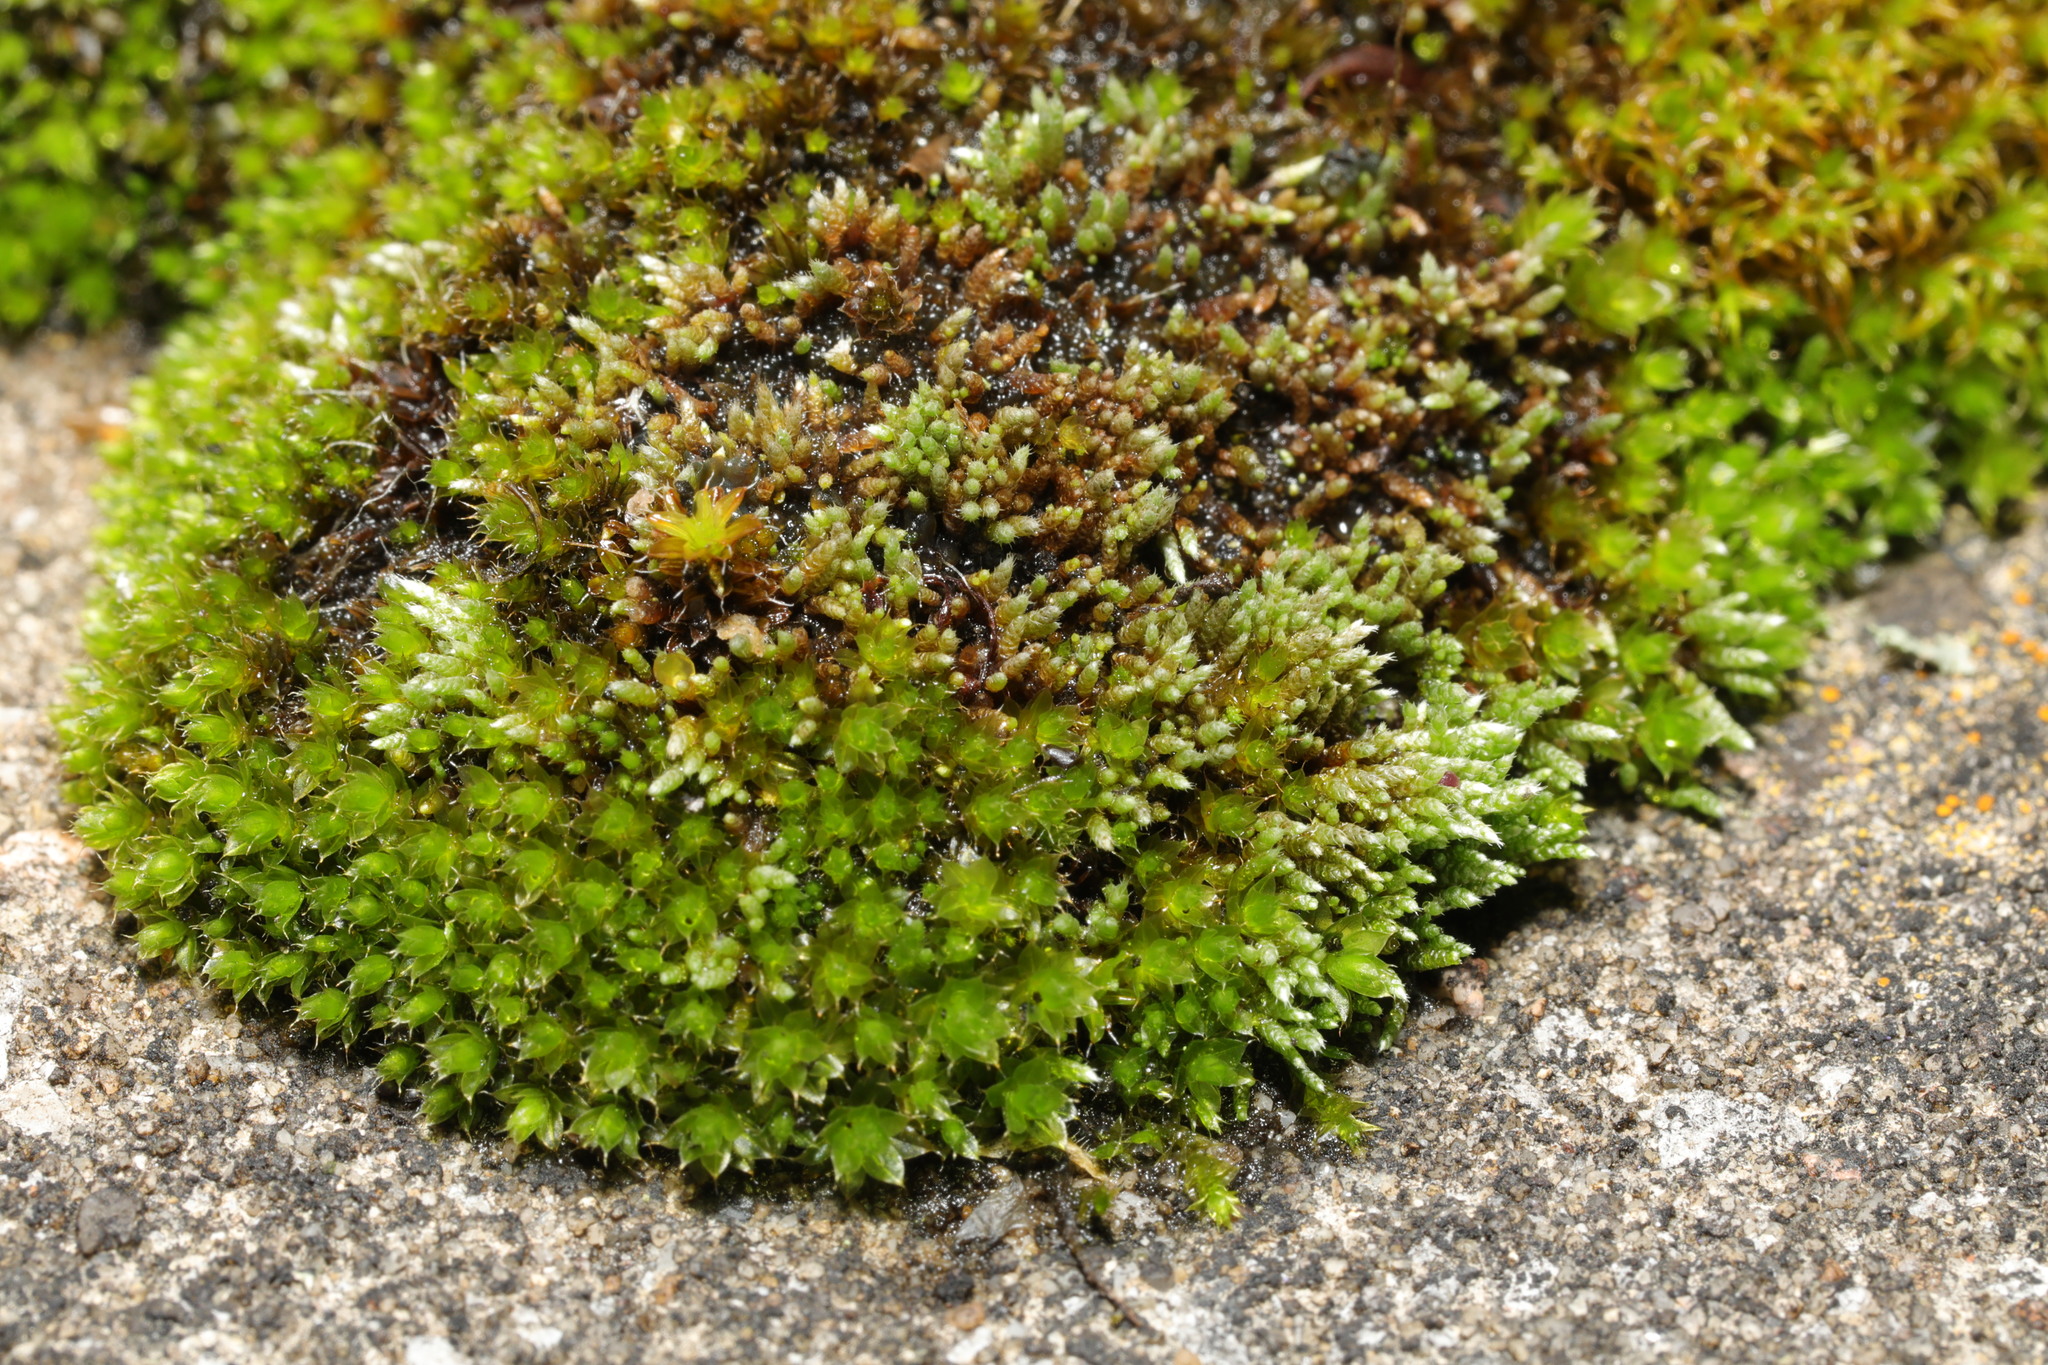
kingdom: Plantae
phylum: Bryophyta
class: Bryopsida
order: Bryales
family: Bryaceae
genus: Bryum
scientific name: Bryum argenteum
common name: Silver-moss
